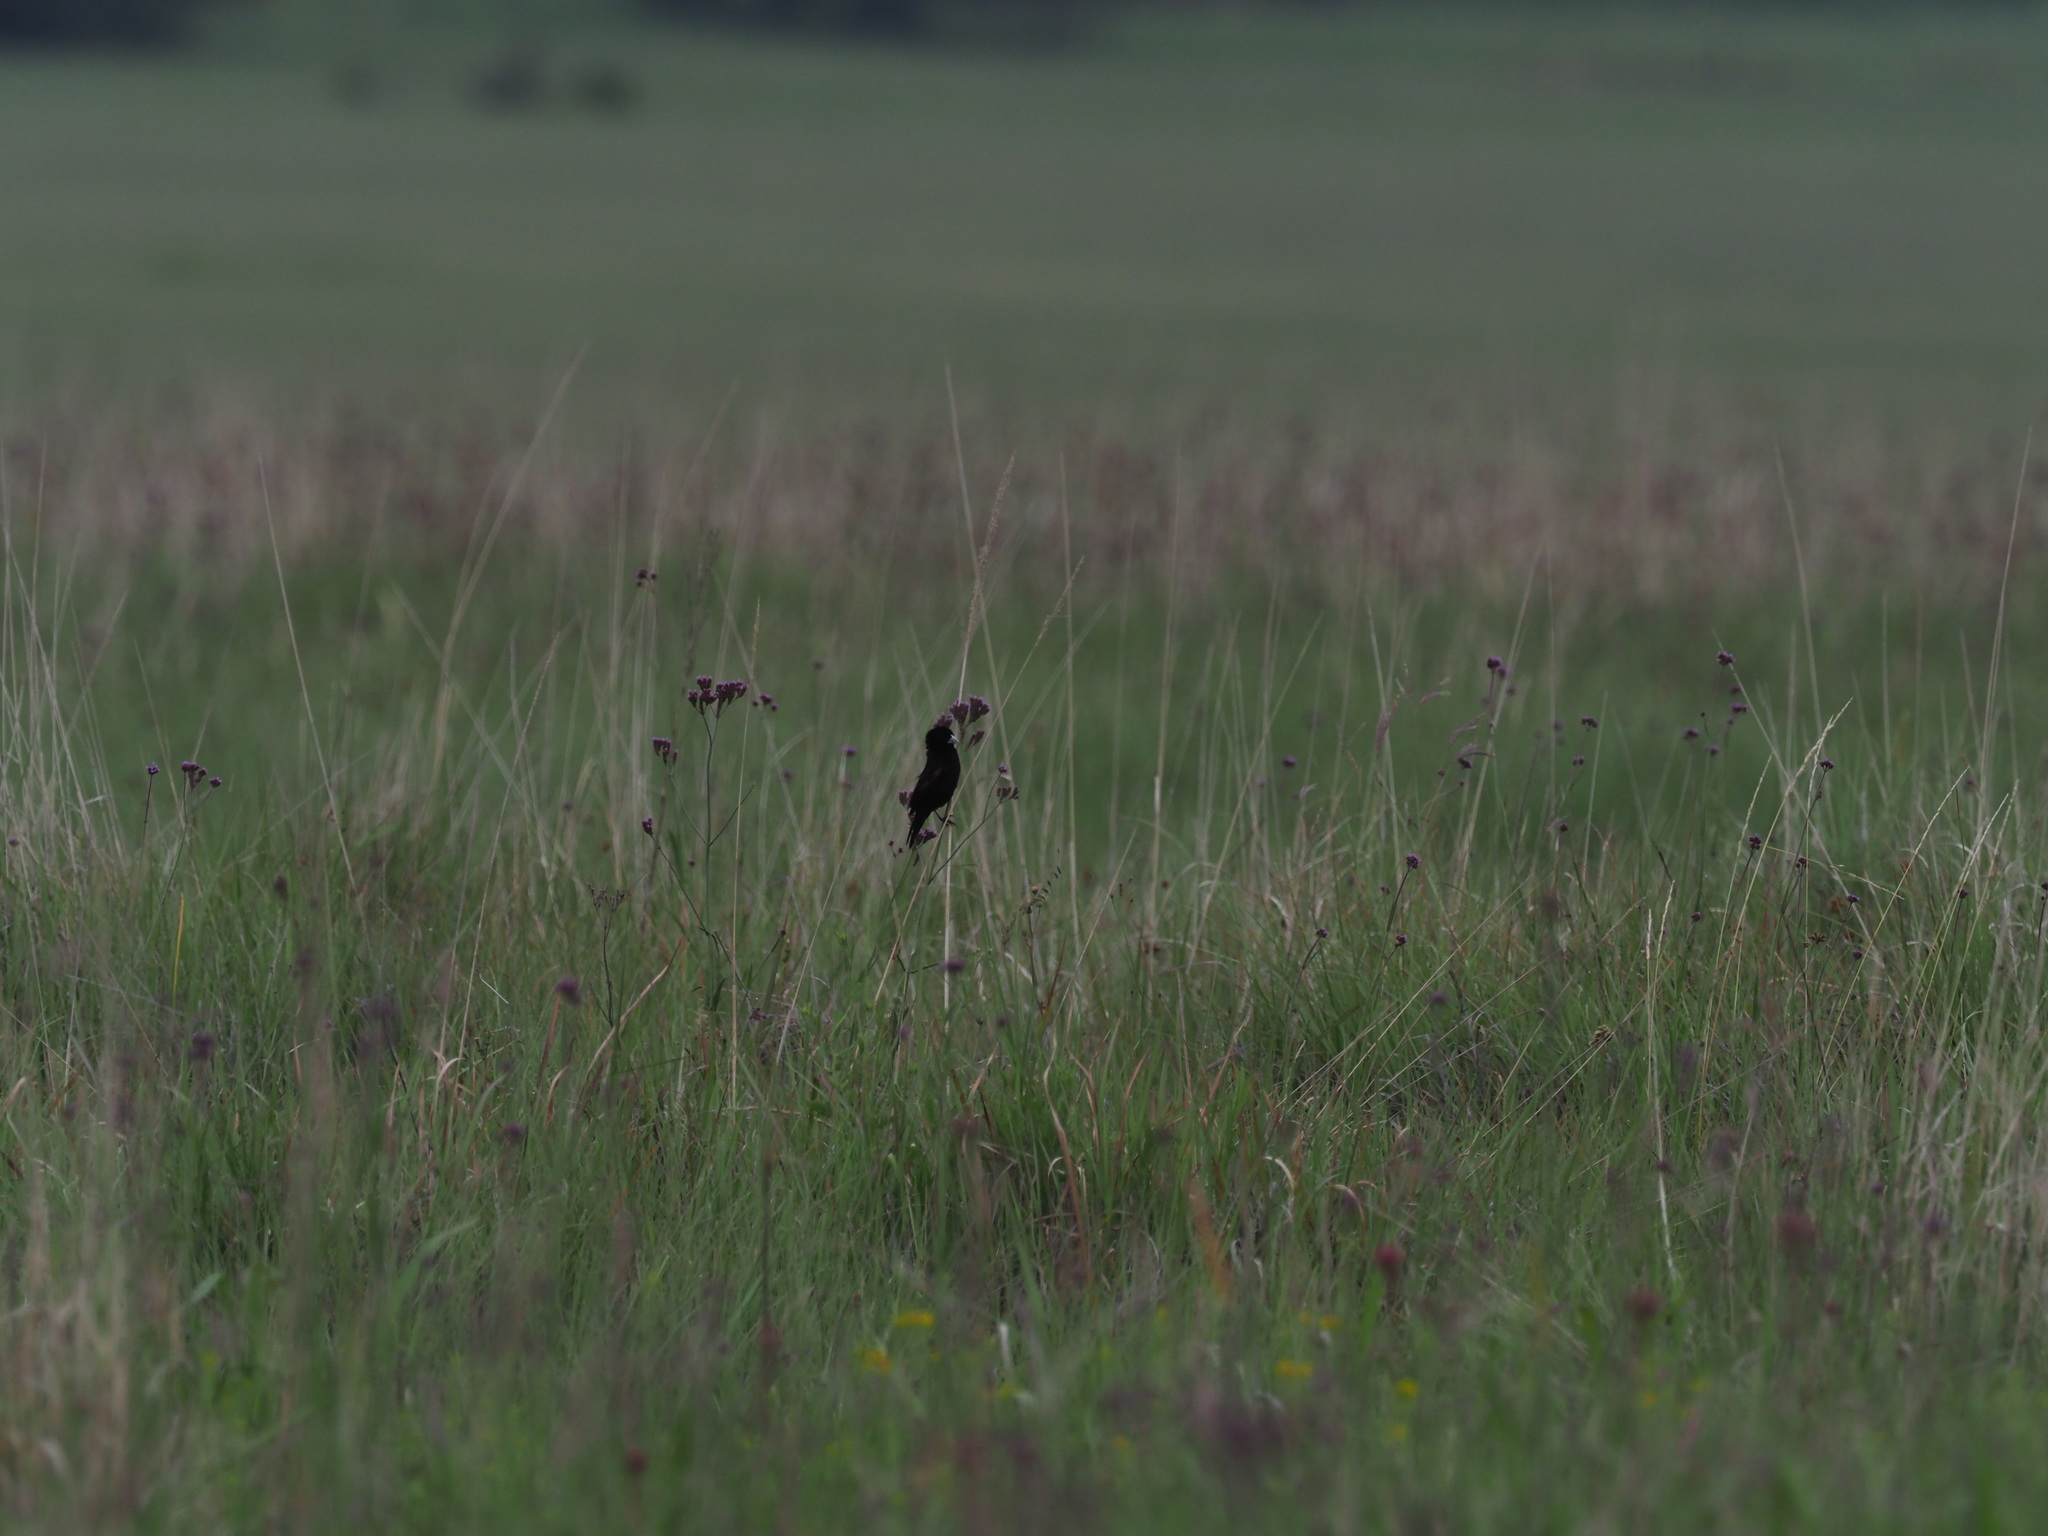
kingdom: Animalia
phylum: Chordata
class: Aves
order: Passeriformes
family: Ploceidae
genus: Euplectes
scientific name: Euplectes progne
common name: Long-tailed widowbird
